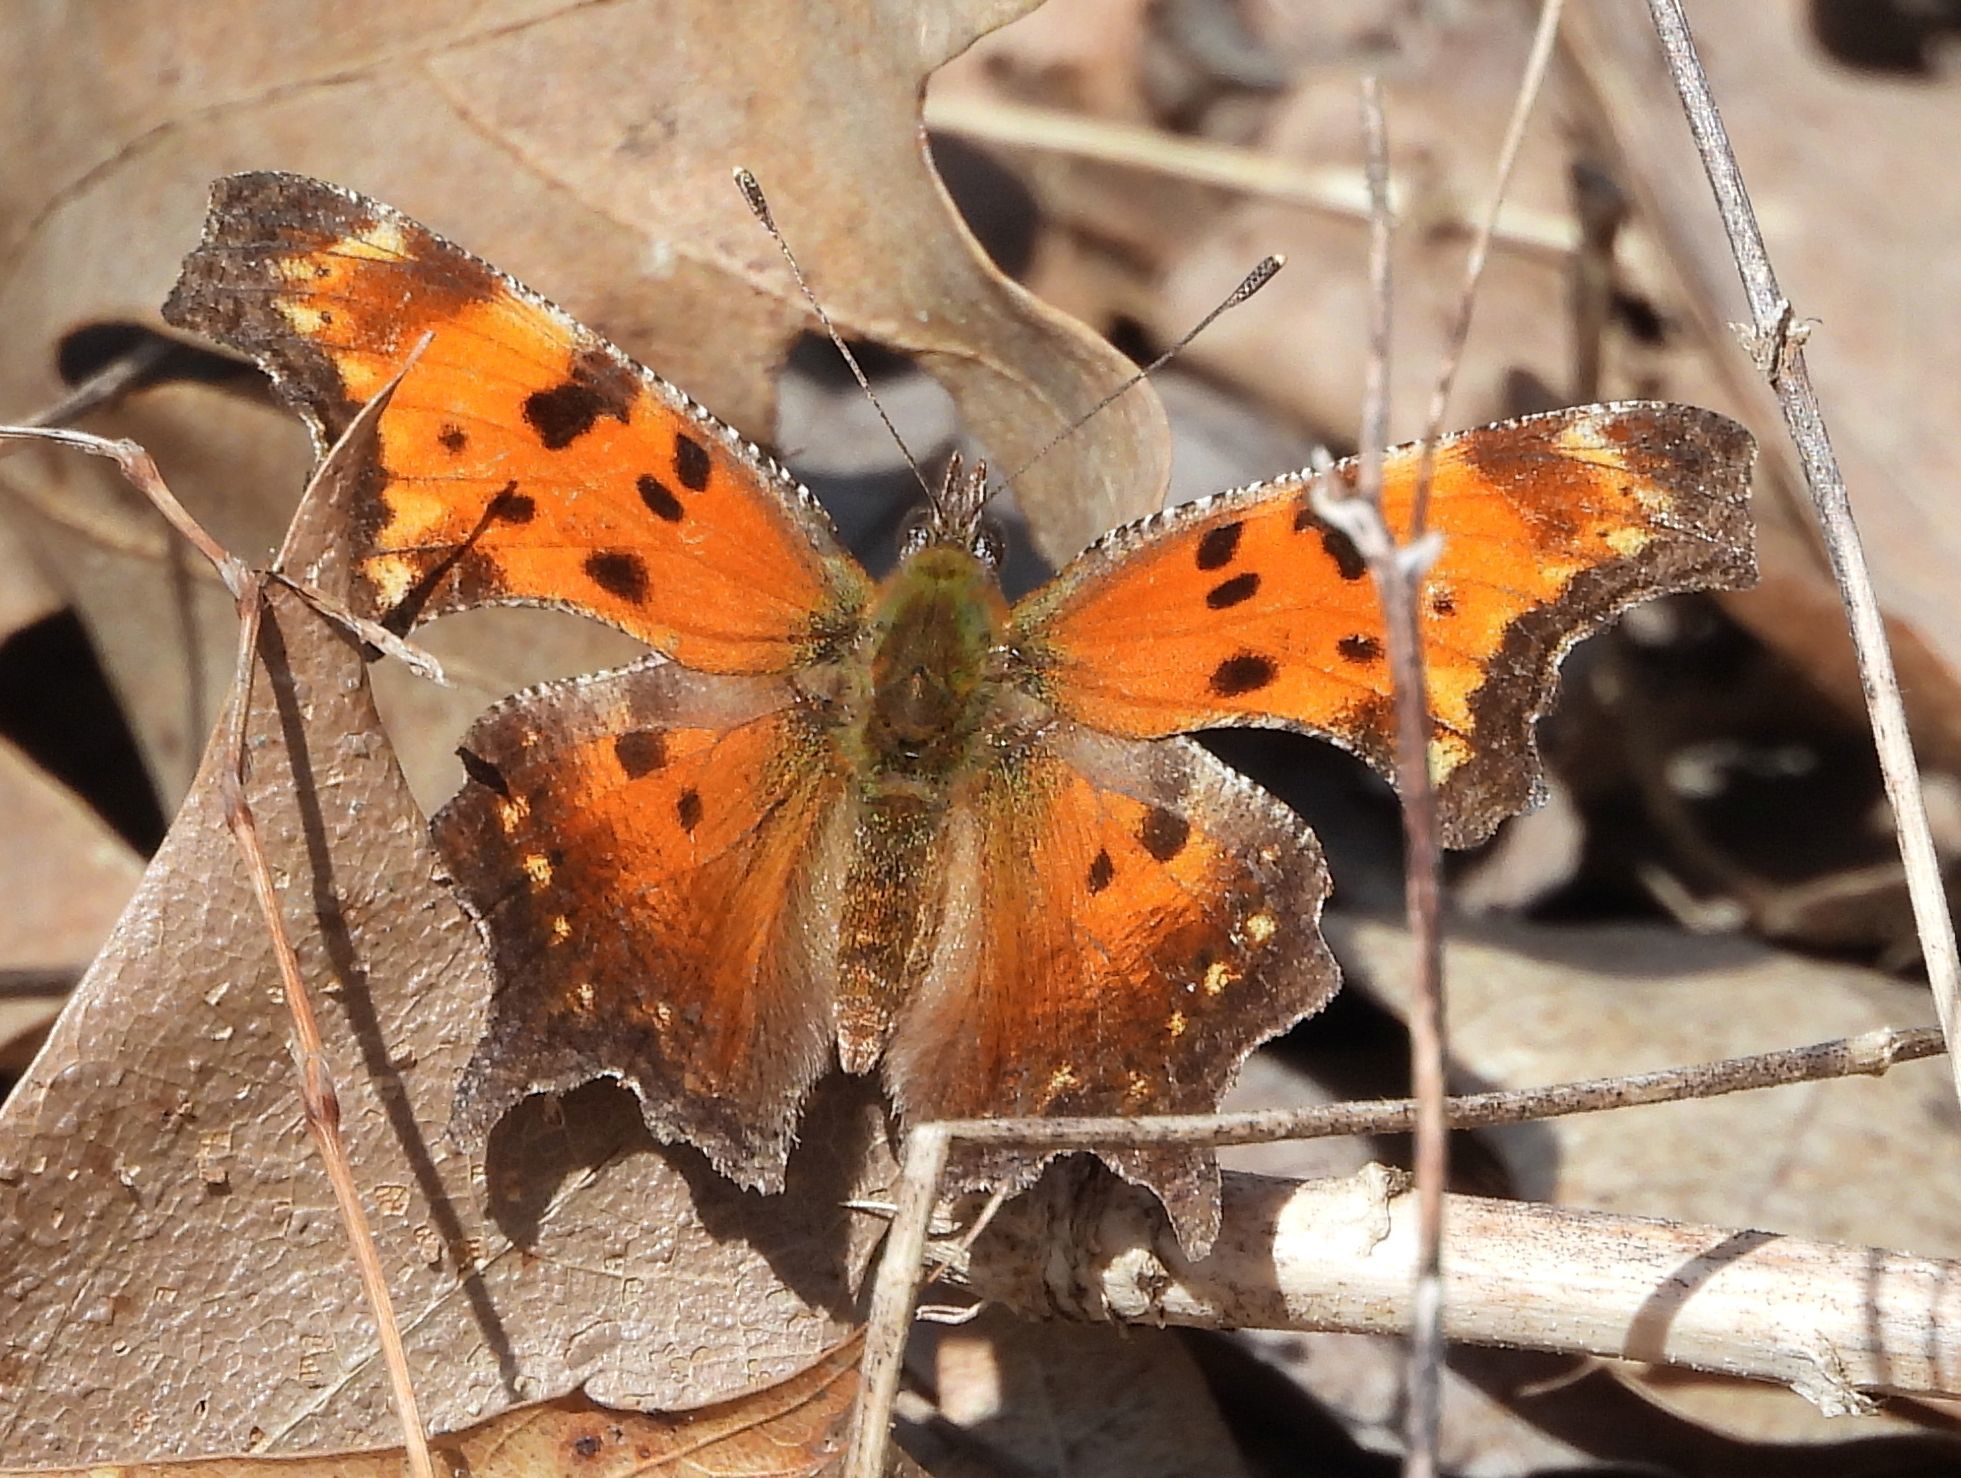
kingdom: Animalia
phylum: Arthropoda
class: Insecta
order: Lepidoptera
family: Nymphalidae
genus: Polygonia
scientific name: Polygonia progne
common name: Gray comma
